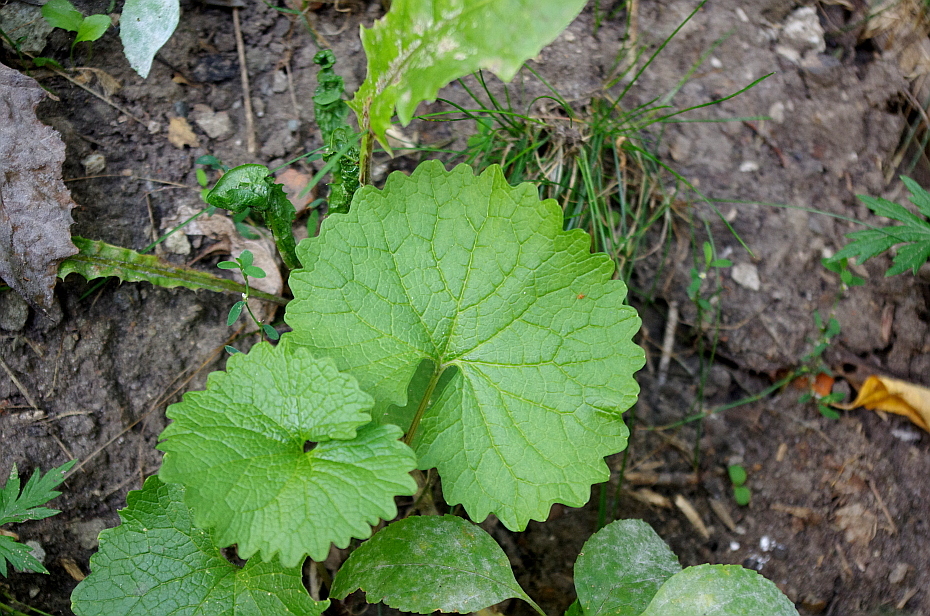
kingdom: Plantae
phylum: Tracheophyta
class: Magnoliopsida
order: Brassicales
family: Brassicaceae
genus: Alliaria
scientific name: Alliaria petiolata
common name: Garlic mustard
